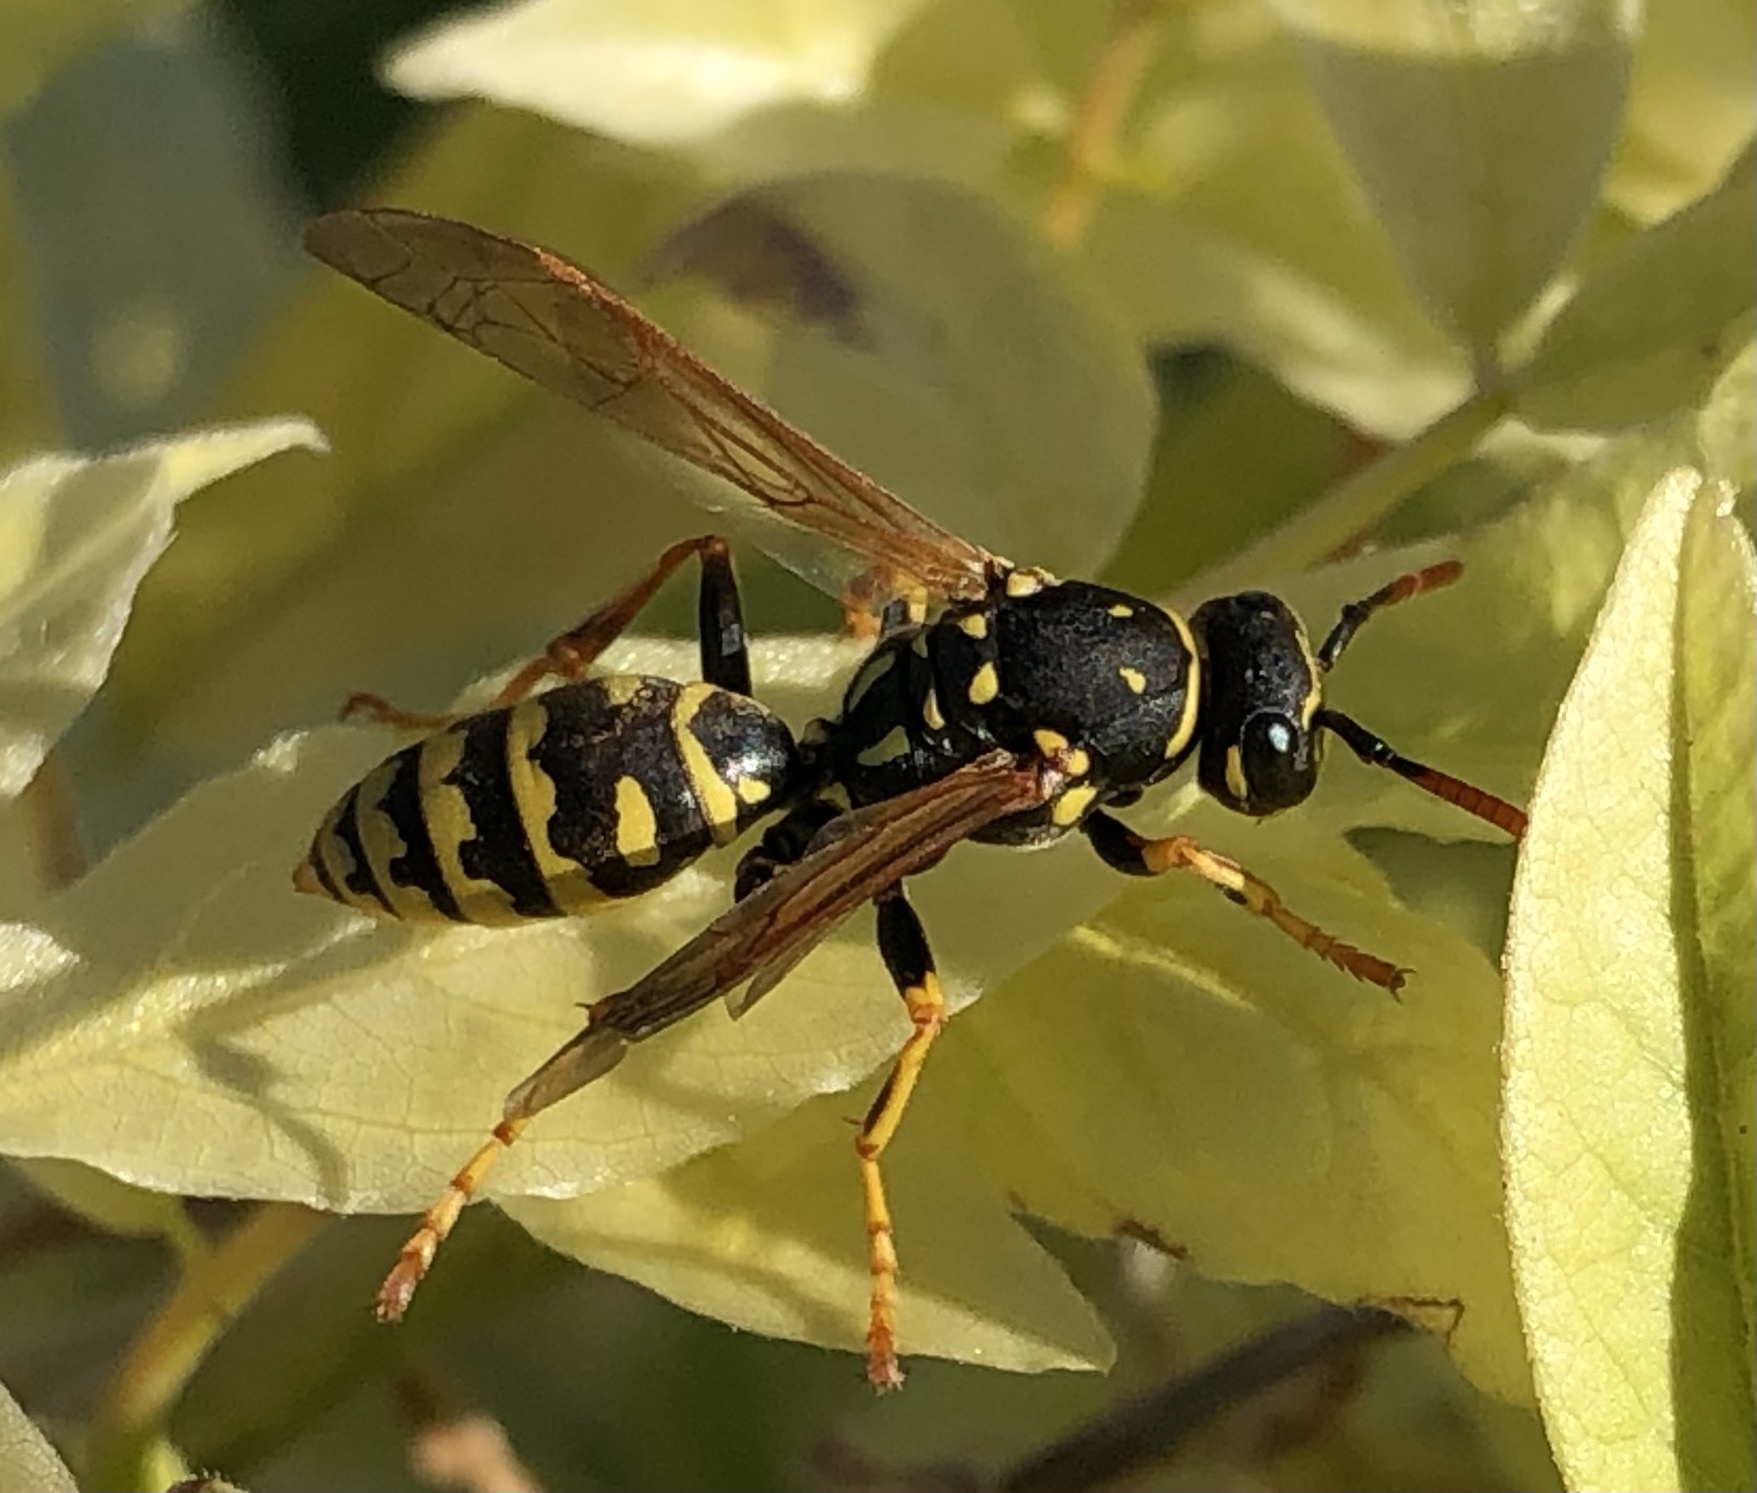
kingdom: Animalia
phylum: Arthropoda
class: Insecta
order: Hymenoptera
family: Eumenidae
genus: Polistes
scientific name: Polistes dominula
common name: Paper wasp
